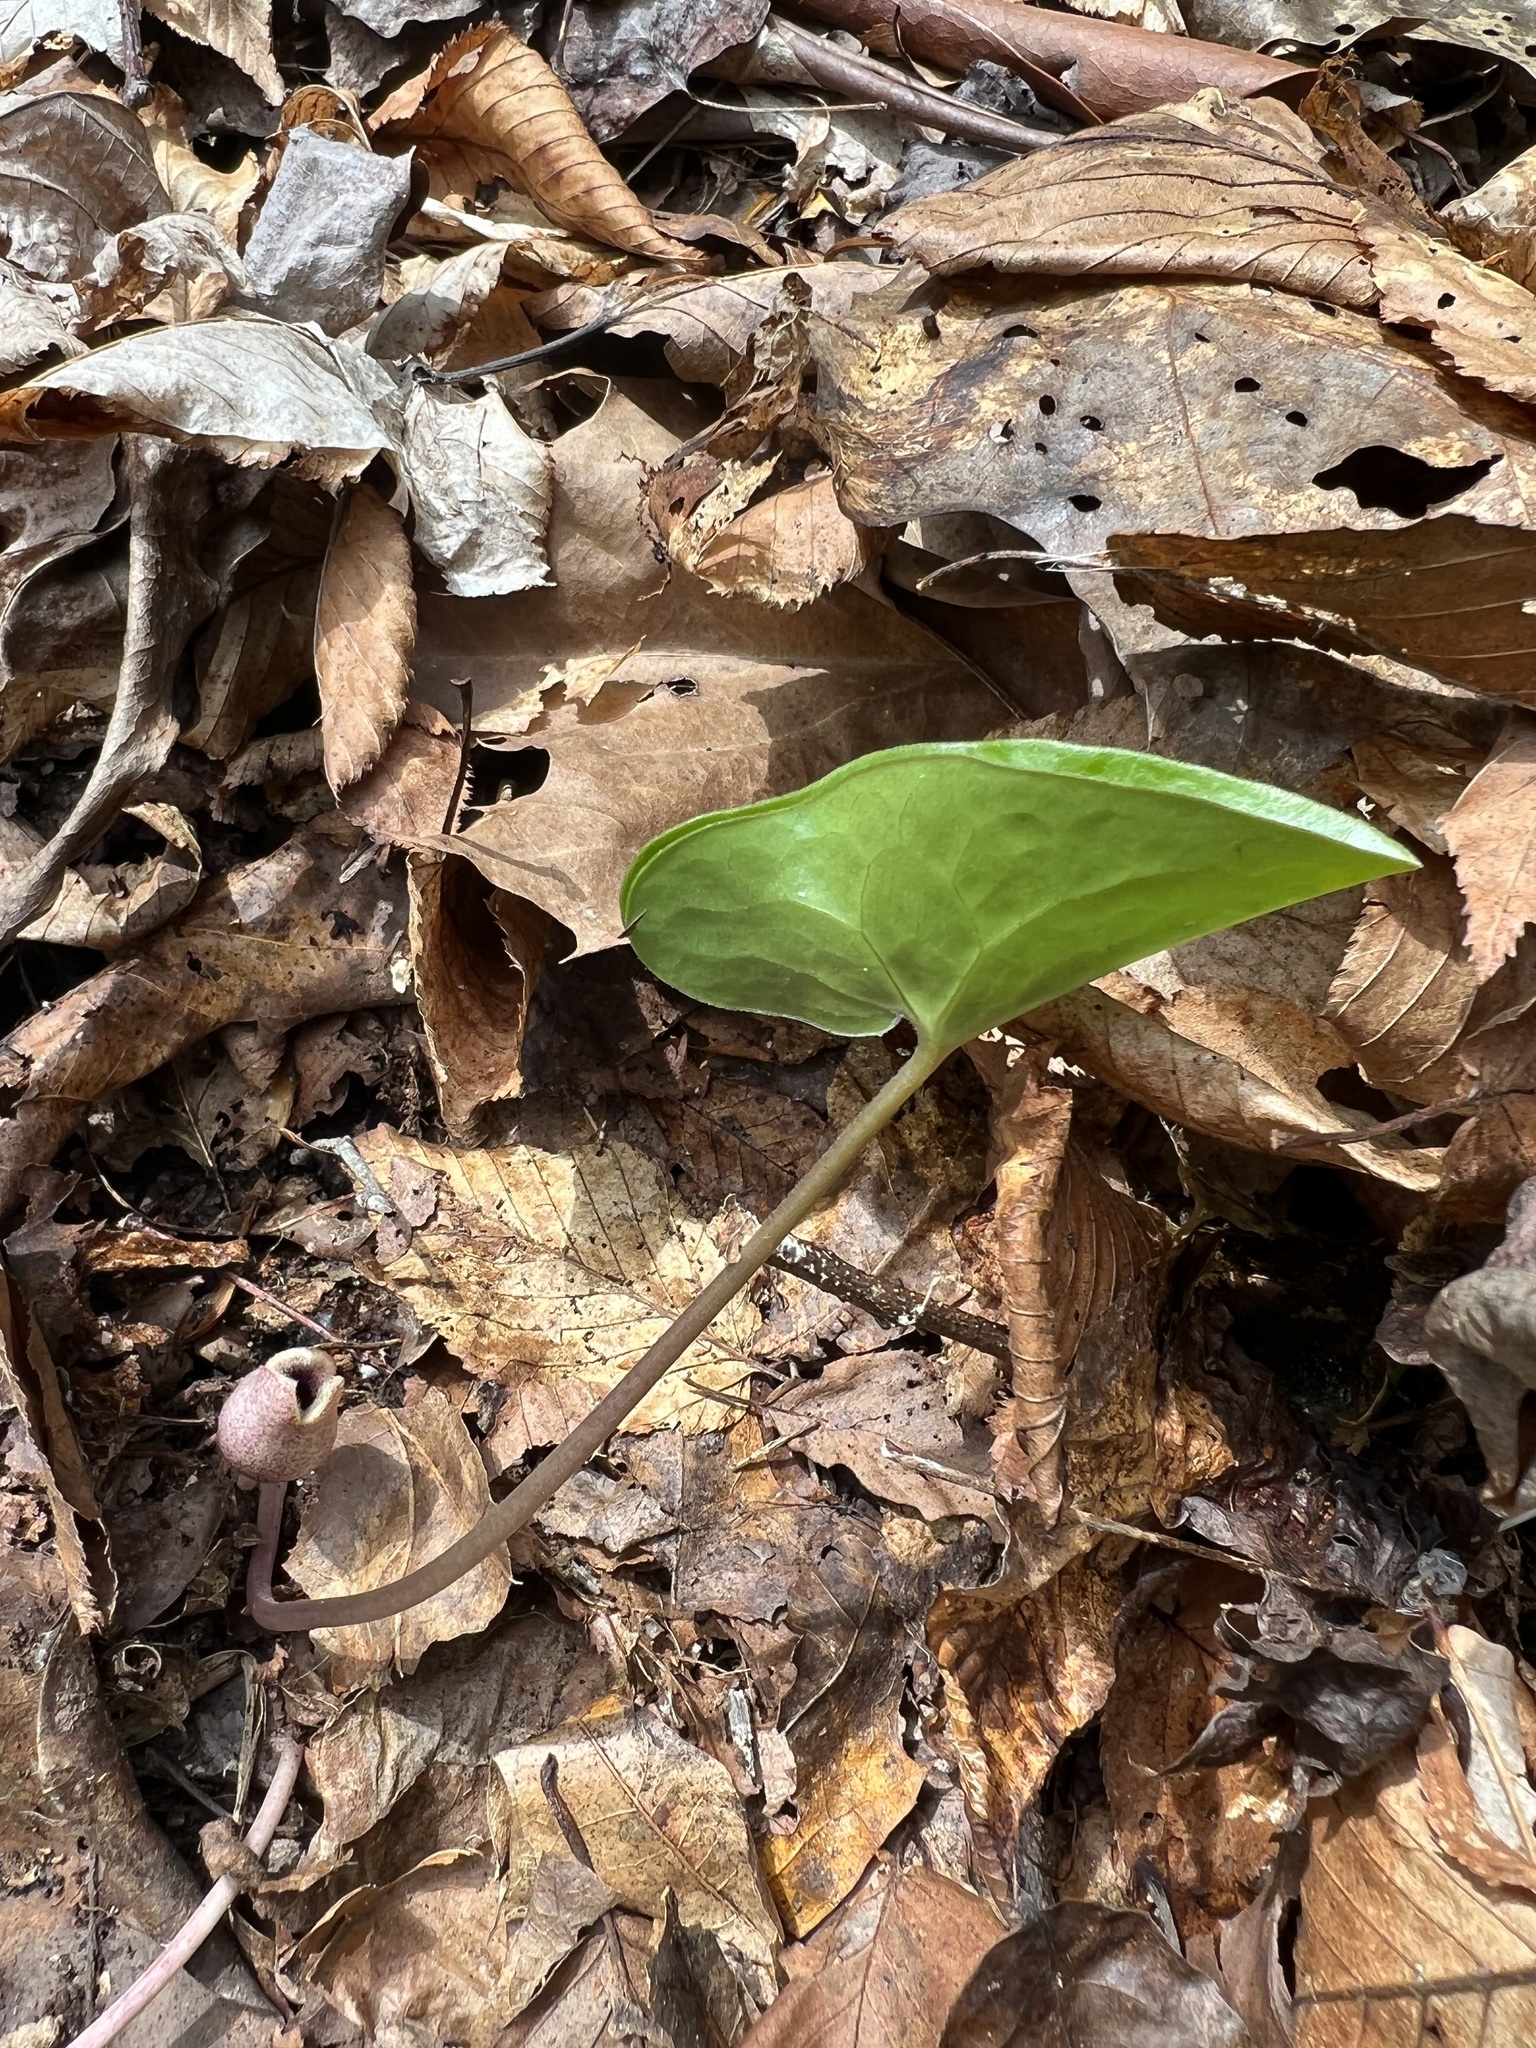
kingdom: Plantae
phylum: Tracheophyta
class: Magnoliopsida
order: Piperales
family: Aristolochiaceae
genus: Hexastylis
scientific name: Hexastylis arifolia
